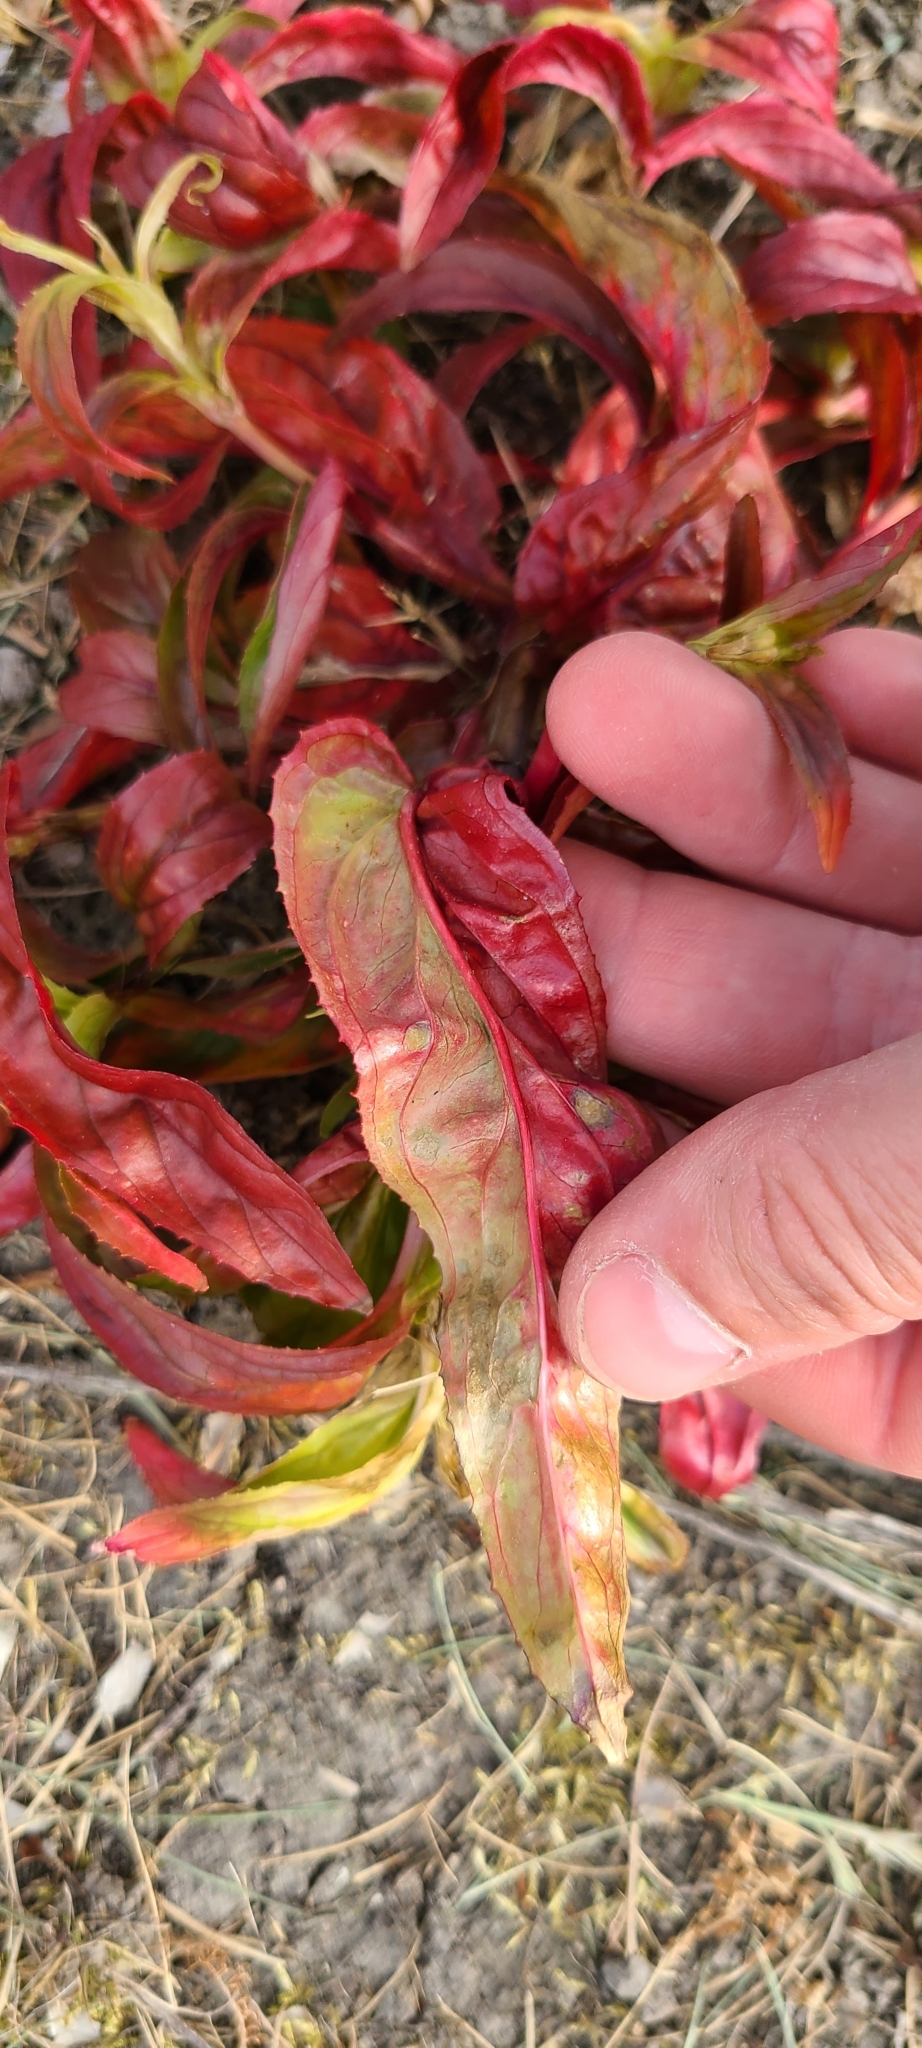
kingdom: Plantae
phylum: Tracheophyta
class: Magnoliopsida
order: Myrtales
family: Onagraceae
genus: Epilobium
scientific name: Epilobium ciliatum
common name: American willowherb
